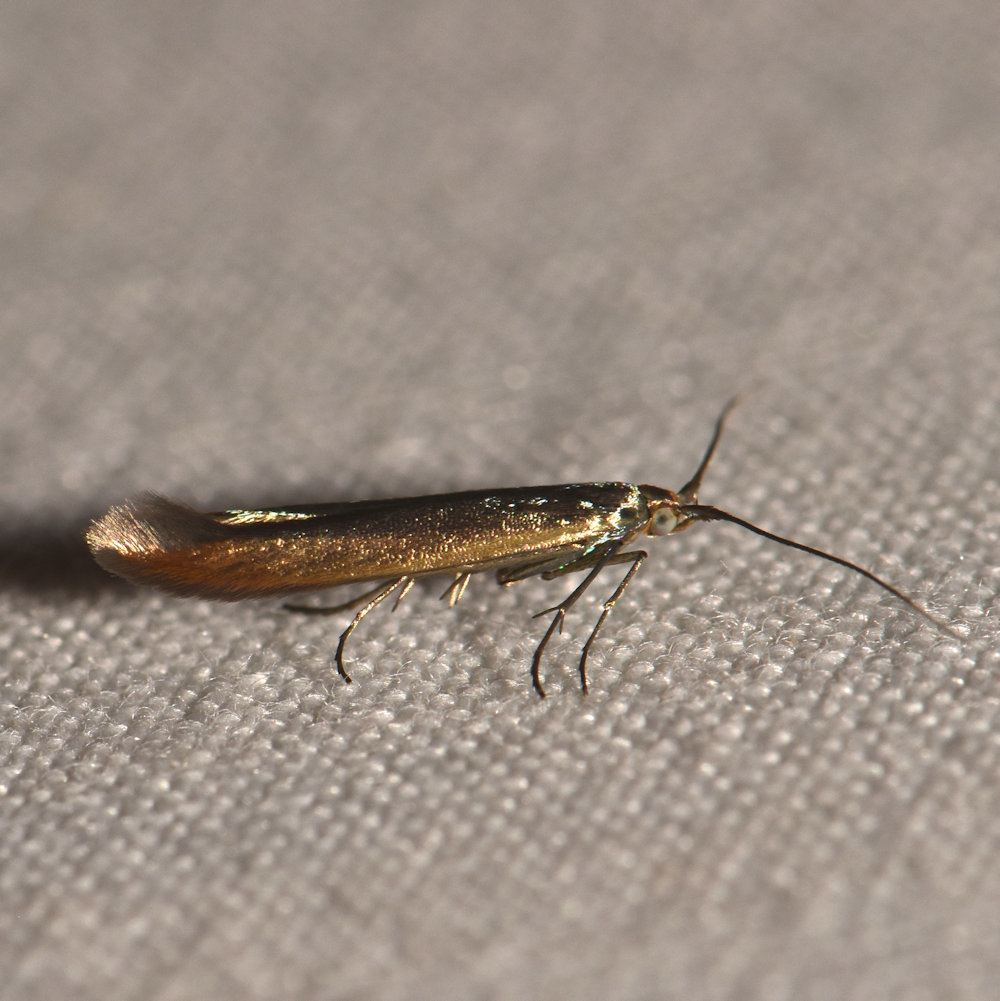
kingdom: Animalia
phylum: Arthropoda
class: Insecta
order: Lepidoptera
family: Coleophoridae
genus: Coleophora
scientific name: Coleophora trifolii
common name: Large clover case-bearer
